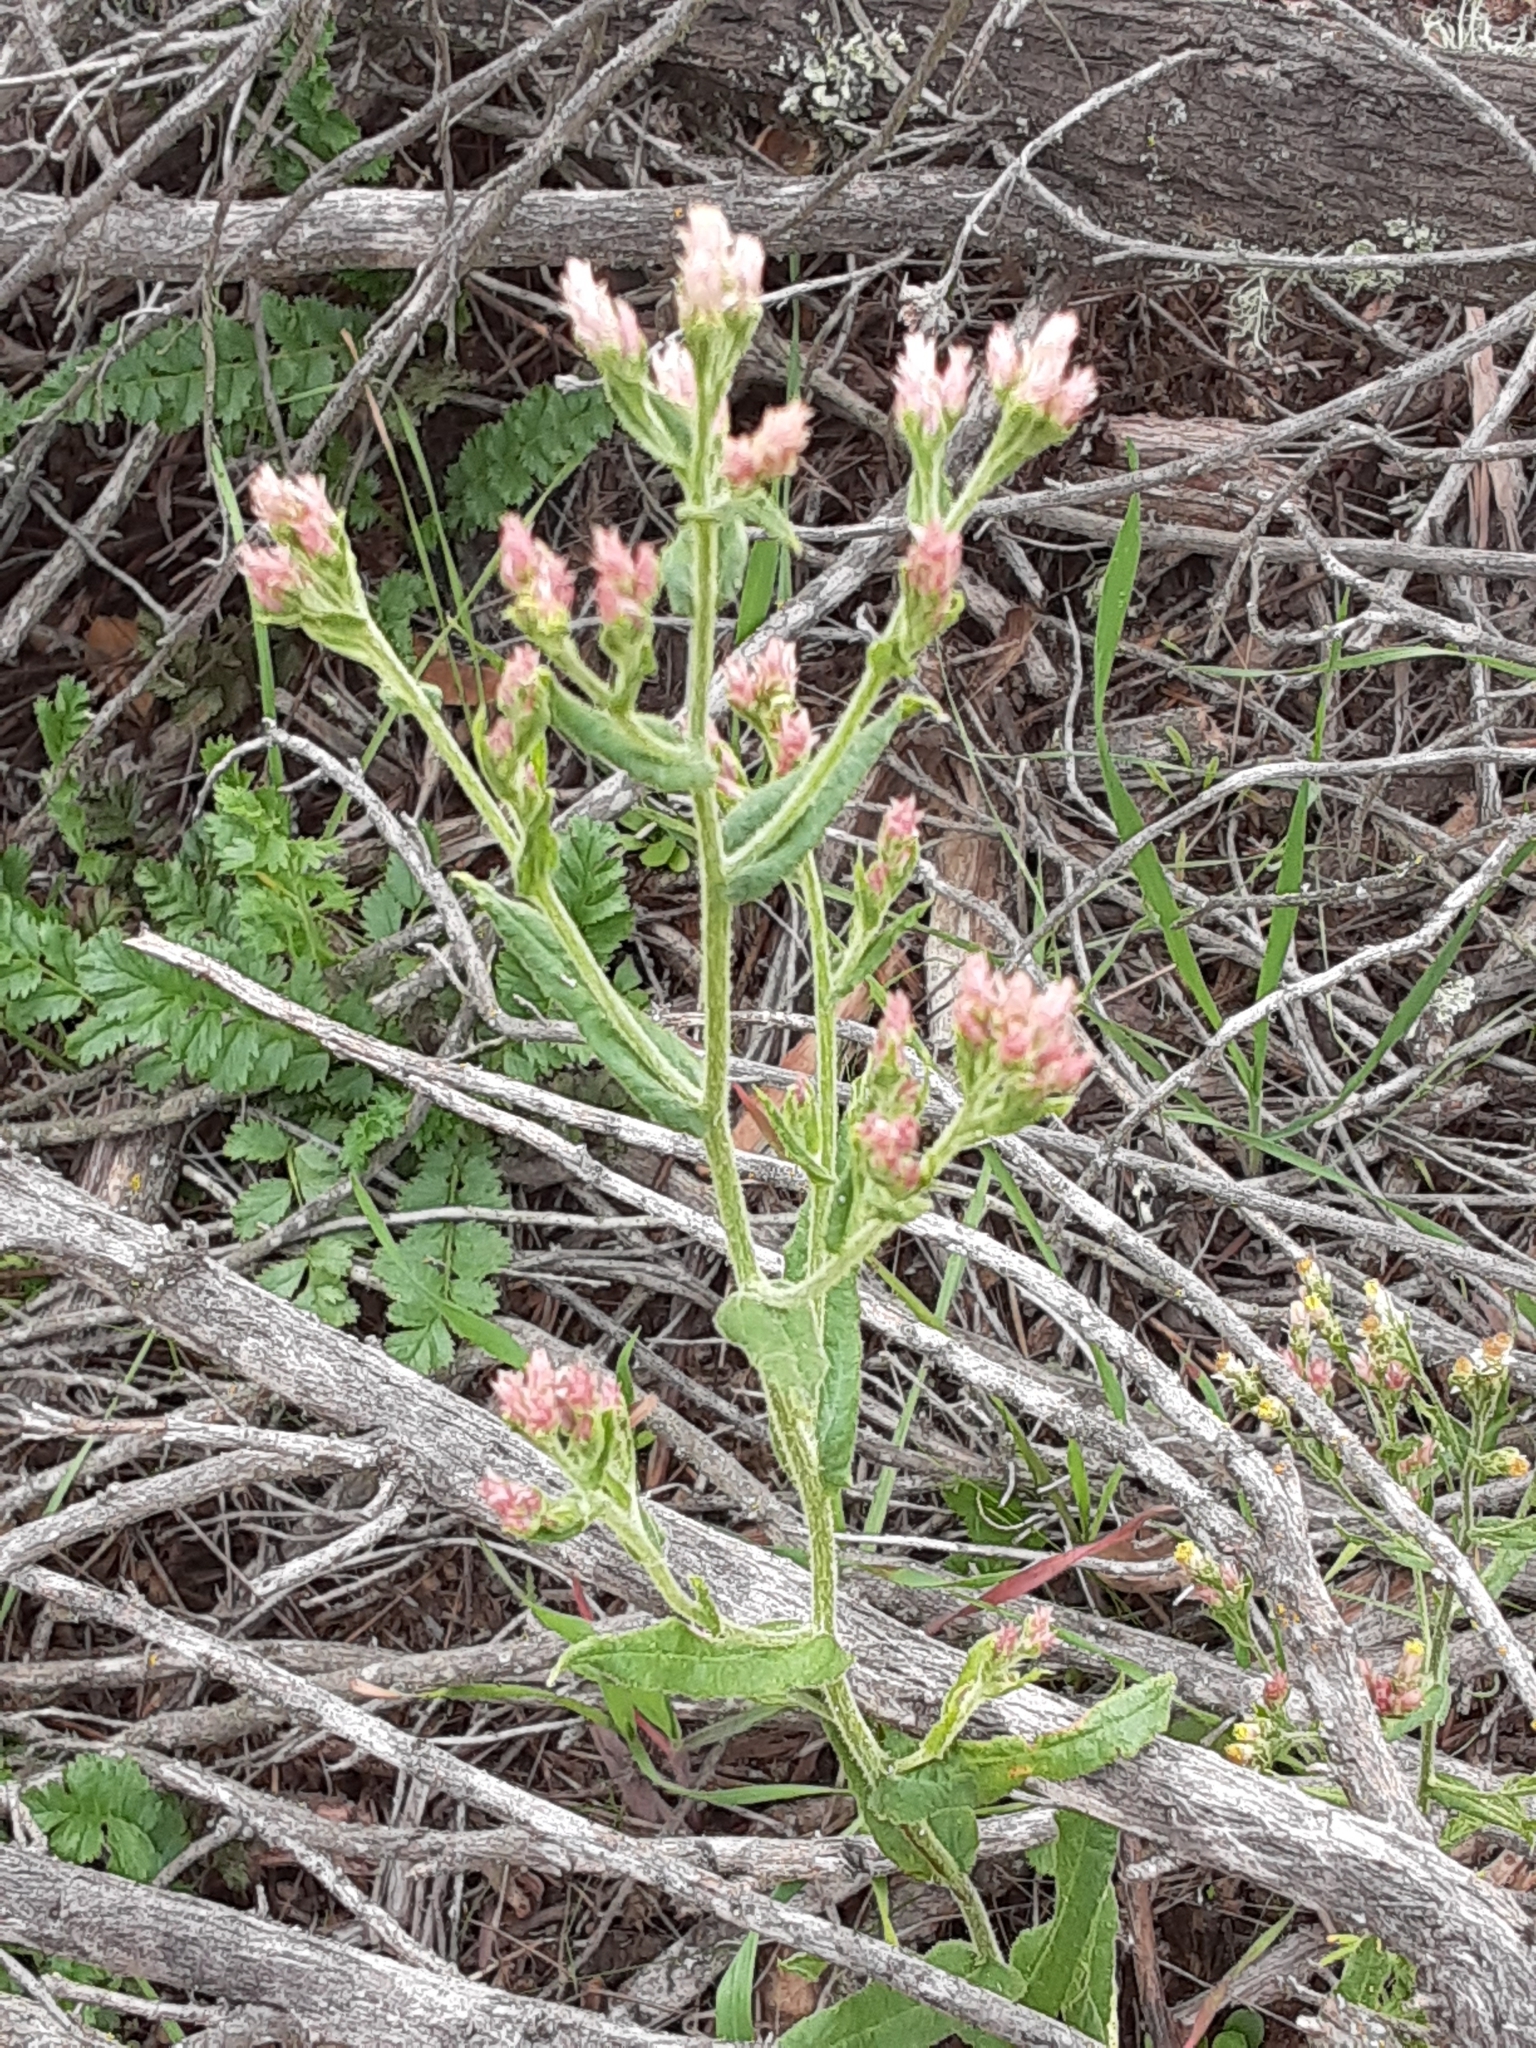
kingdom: Plantae
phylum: Tracheophyta
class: Magnoliopsida
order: Asterales
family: Asteraceae
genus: Pseudognaphalium
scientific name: Pseudognaphalium ramosissimum
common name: Pink rabbit-tobacco
